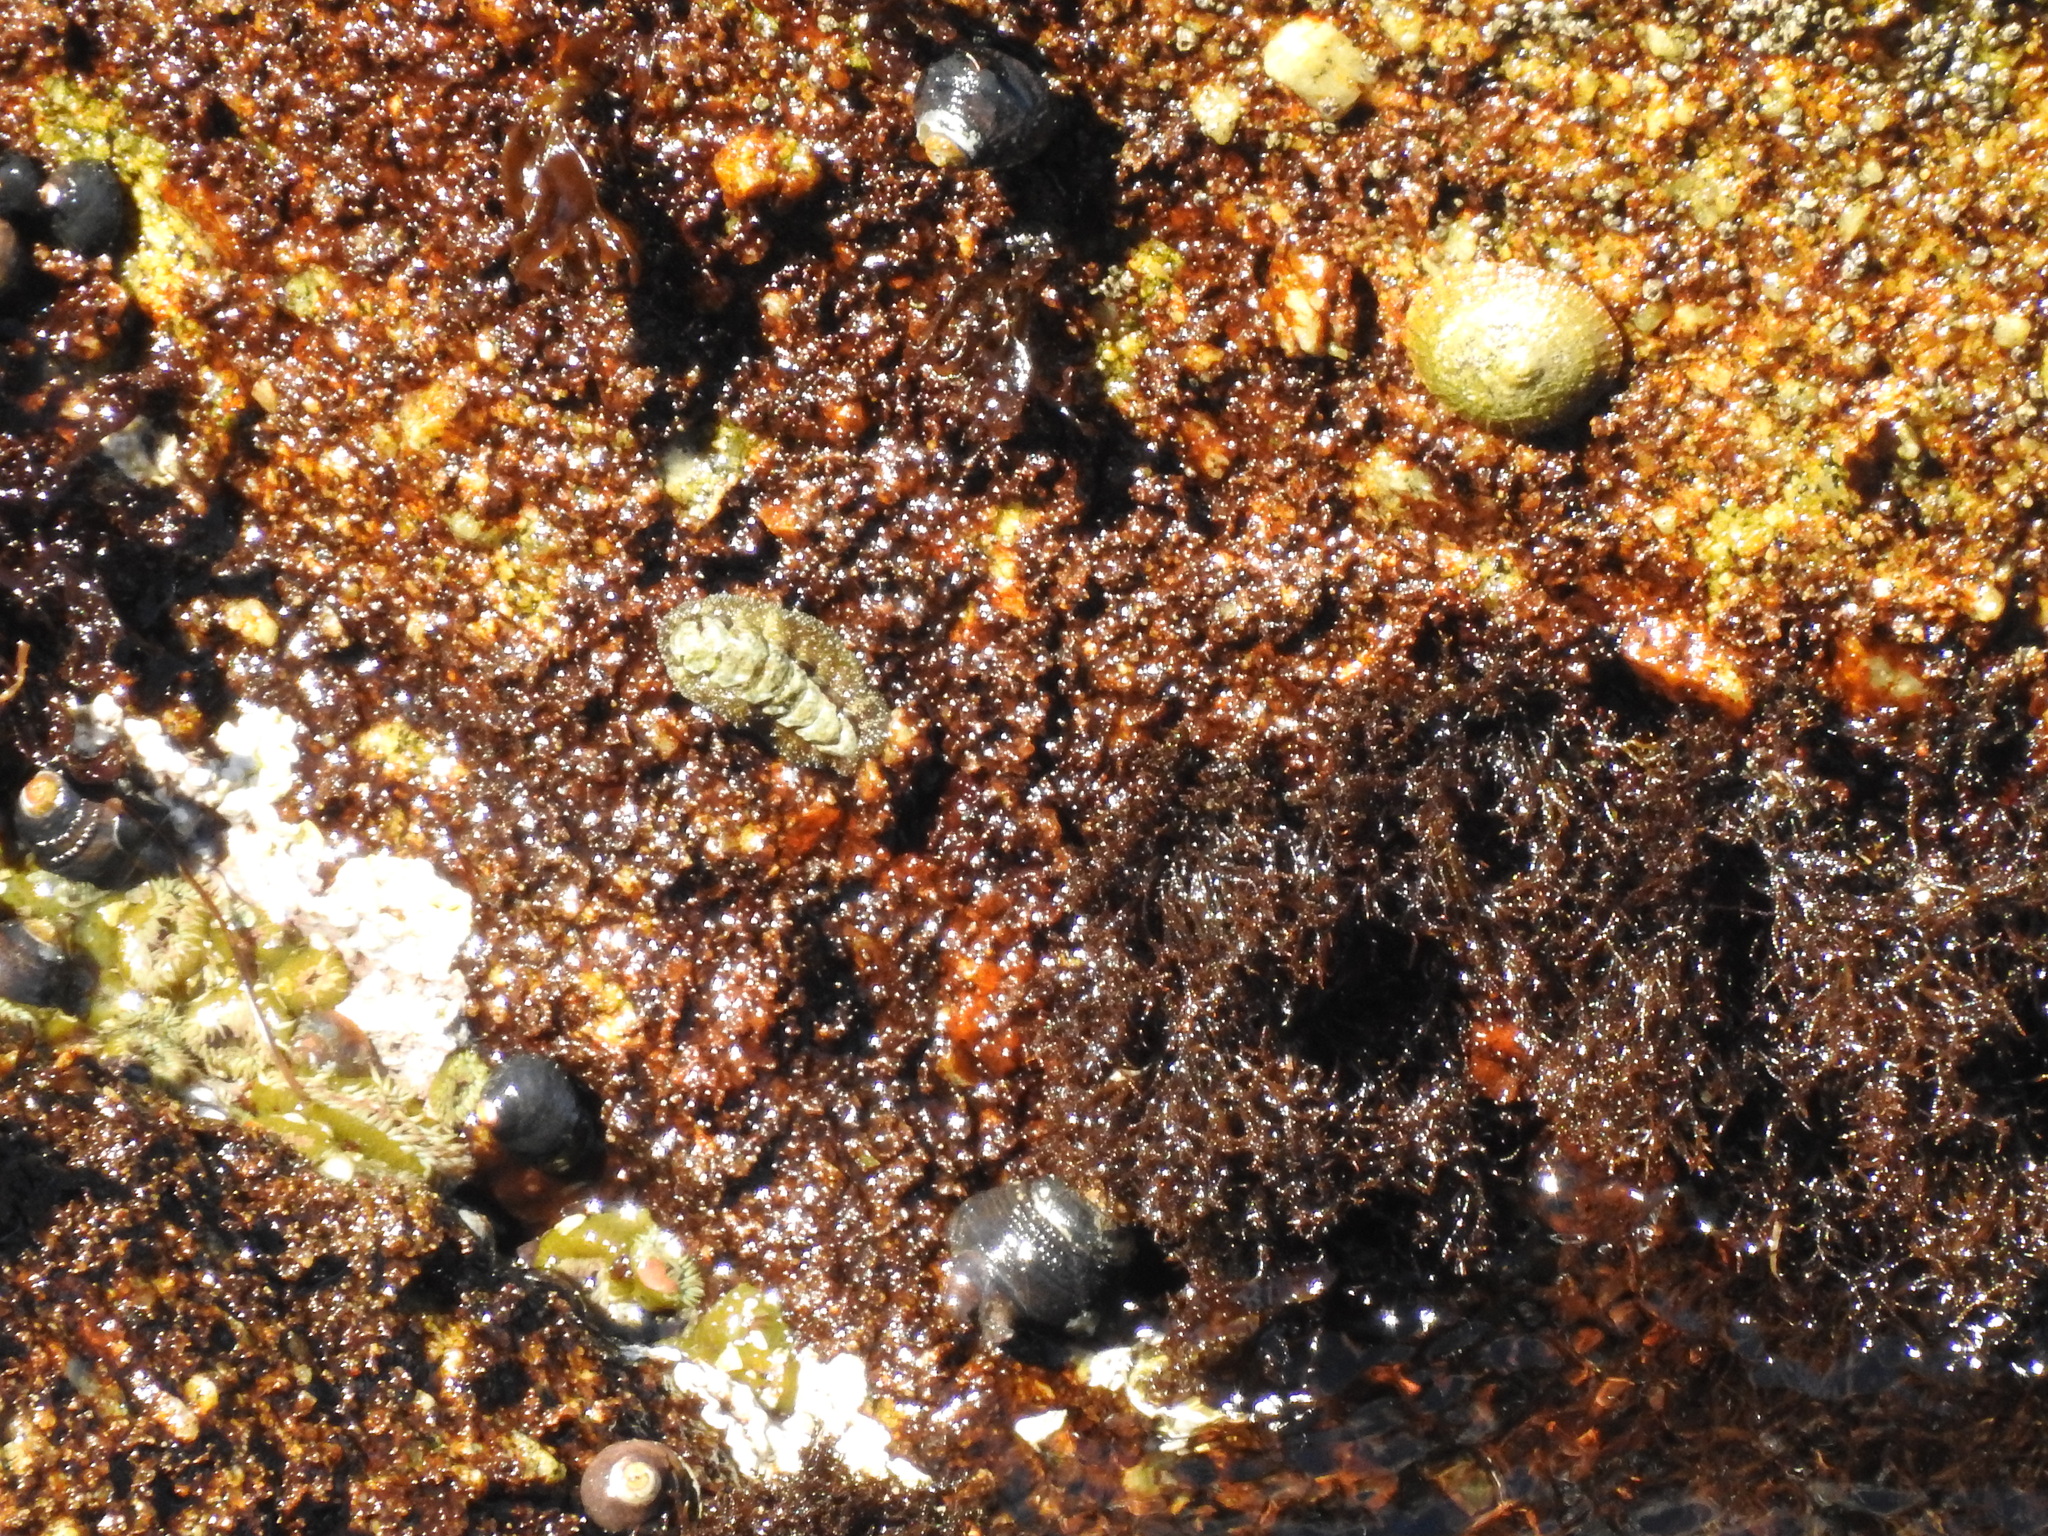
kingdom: Animalia
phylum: Mollusca
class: Polyplacophora
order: Chitonida
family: Tonicellidae
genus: Nuttallina
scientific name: Nuttallina californica
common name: California nuttall chiton
